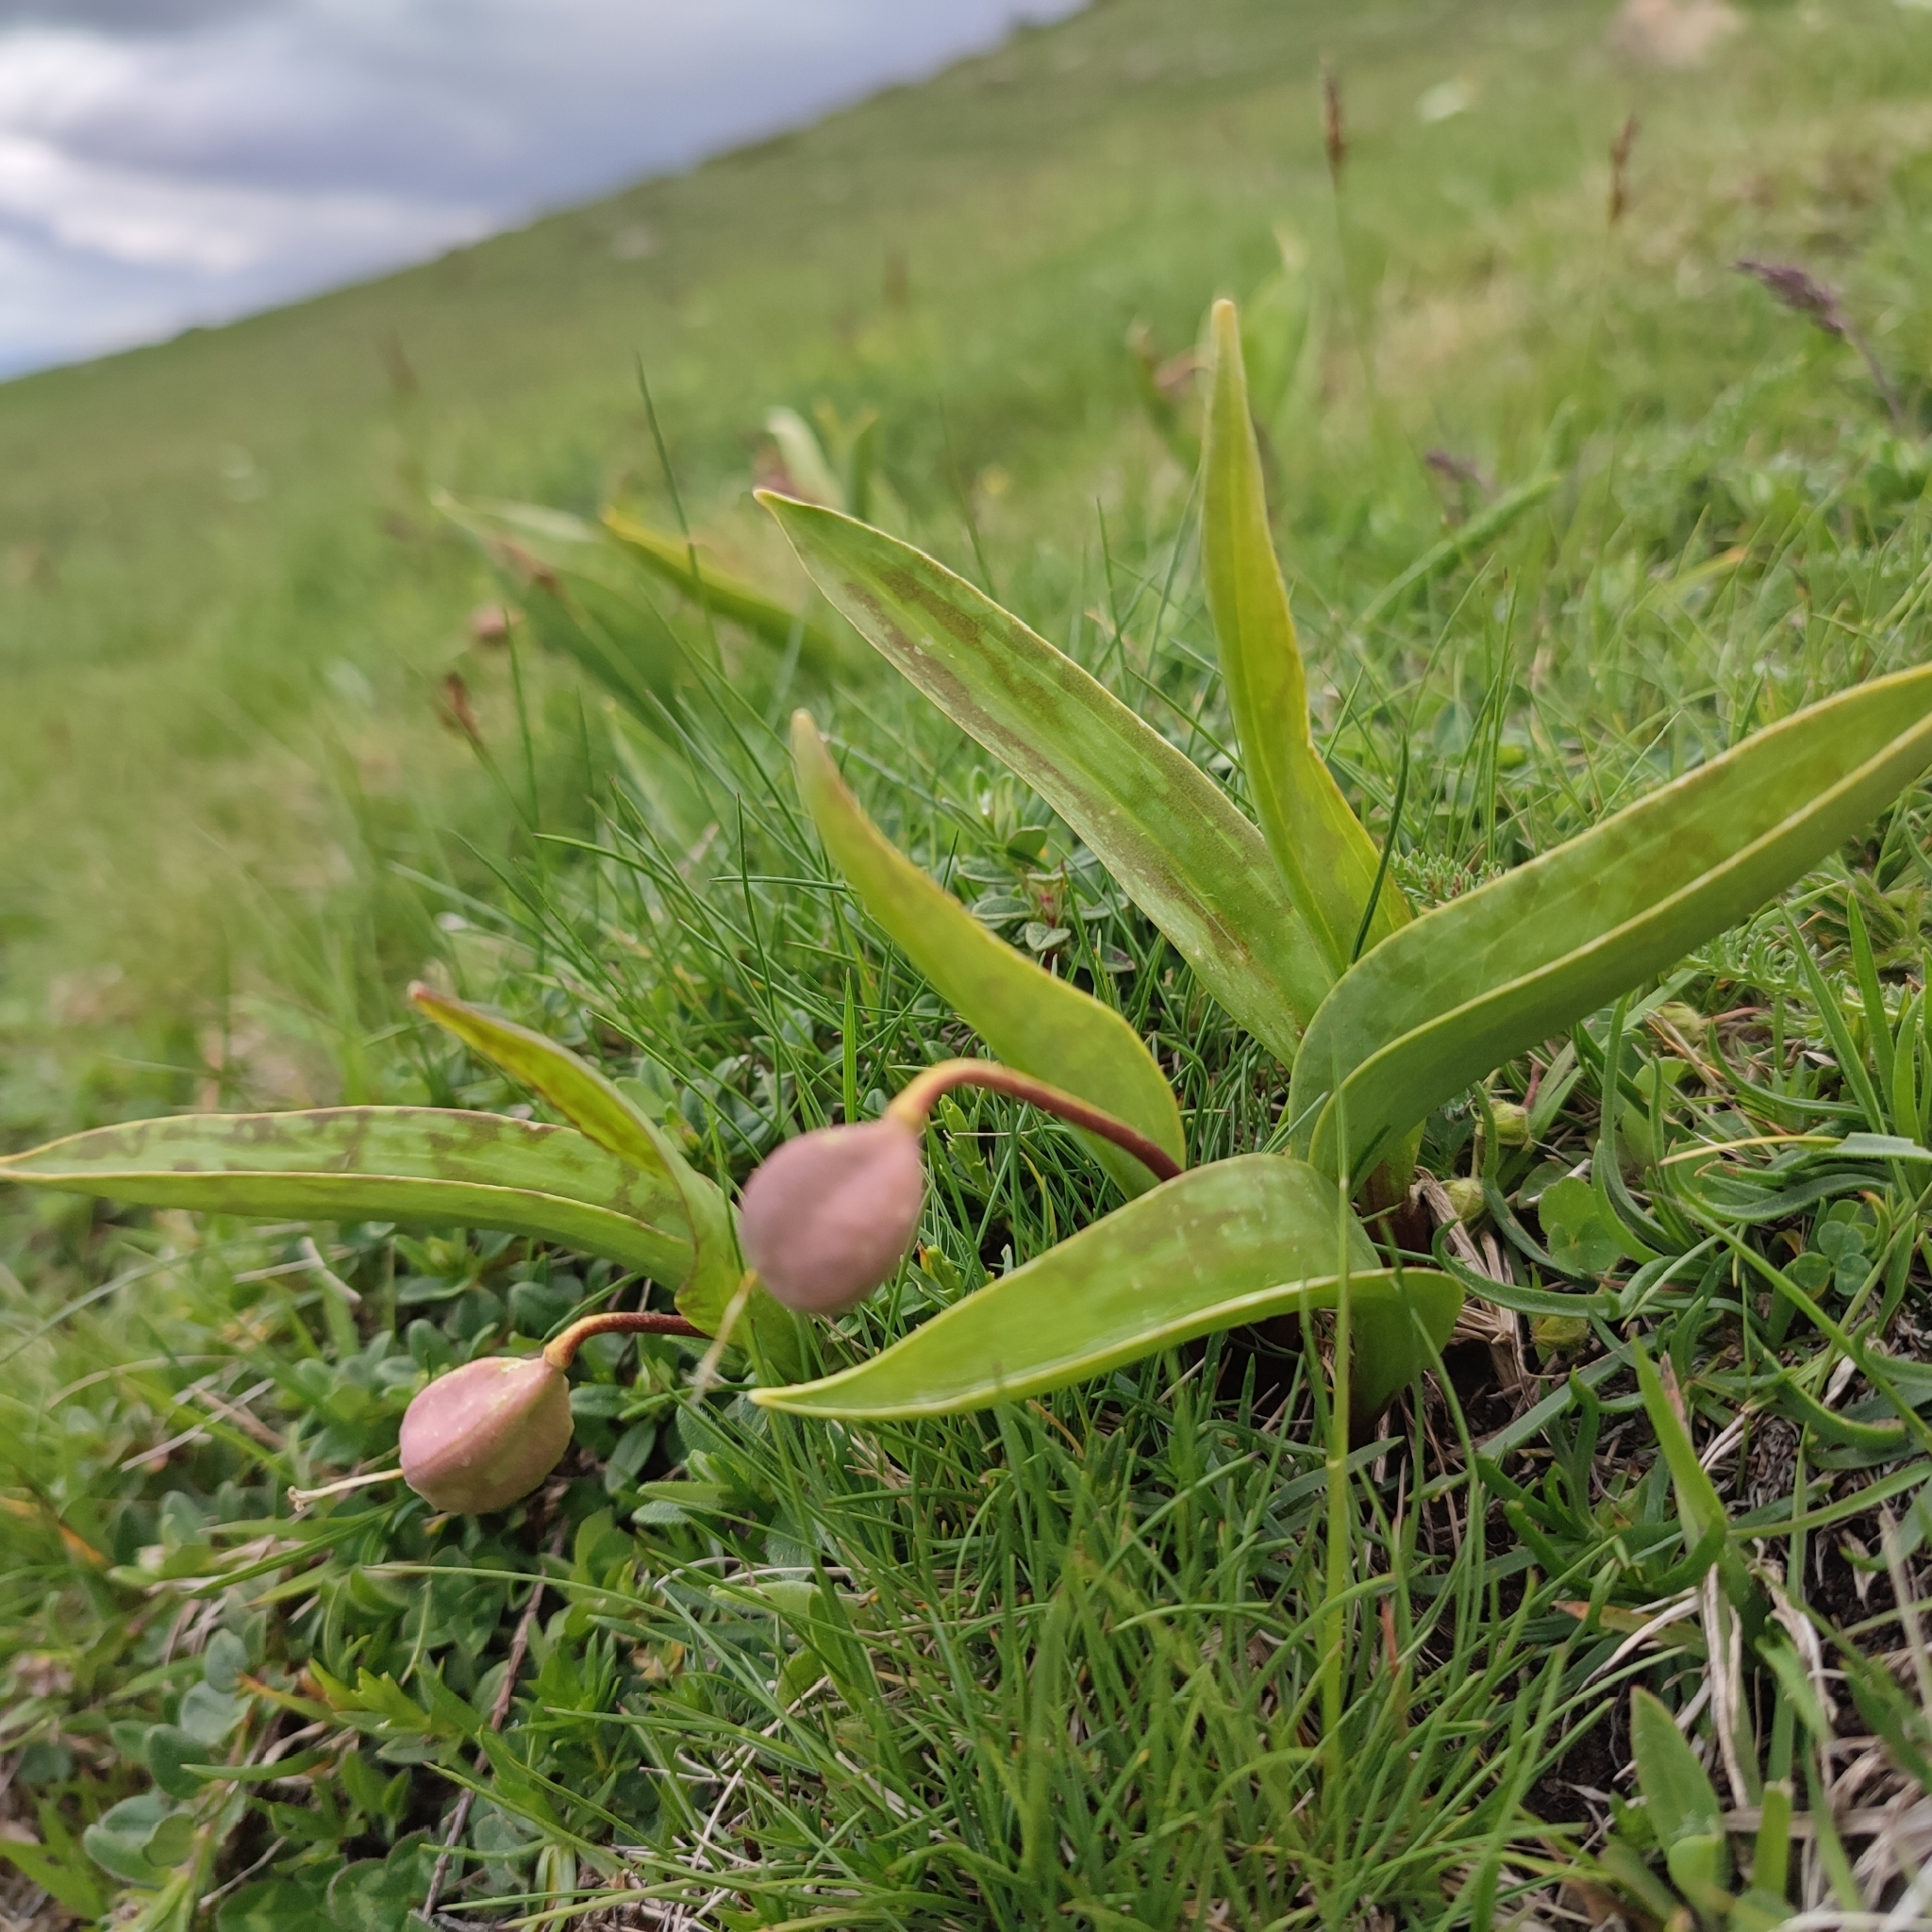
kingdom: Plantae
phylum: Tracheophyta
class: Liliopsida
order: Liliales
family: Liliaceae
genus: Erythronium
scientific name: Erythronium dens-canis
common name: Dog's-tooth-violet
